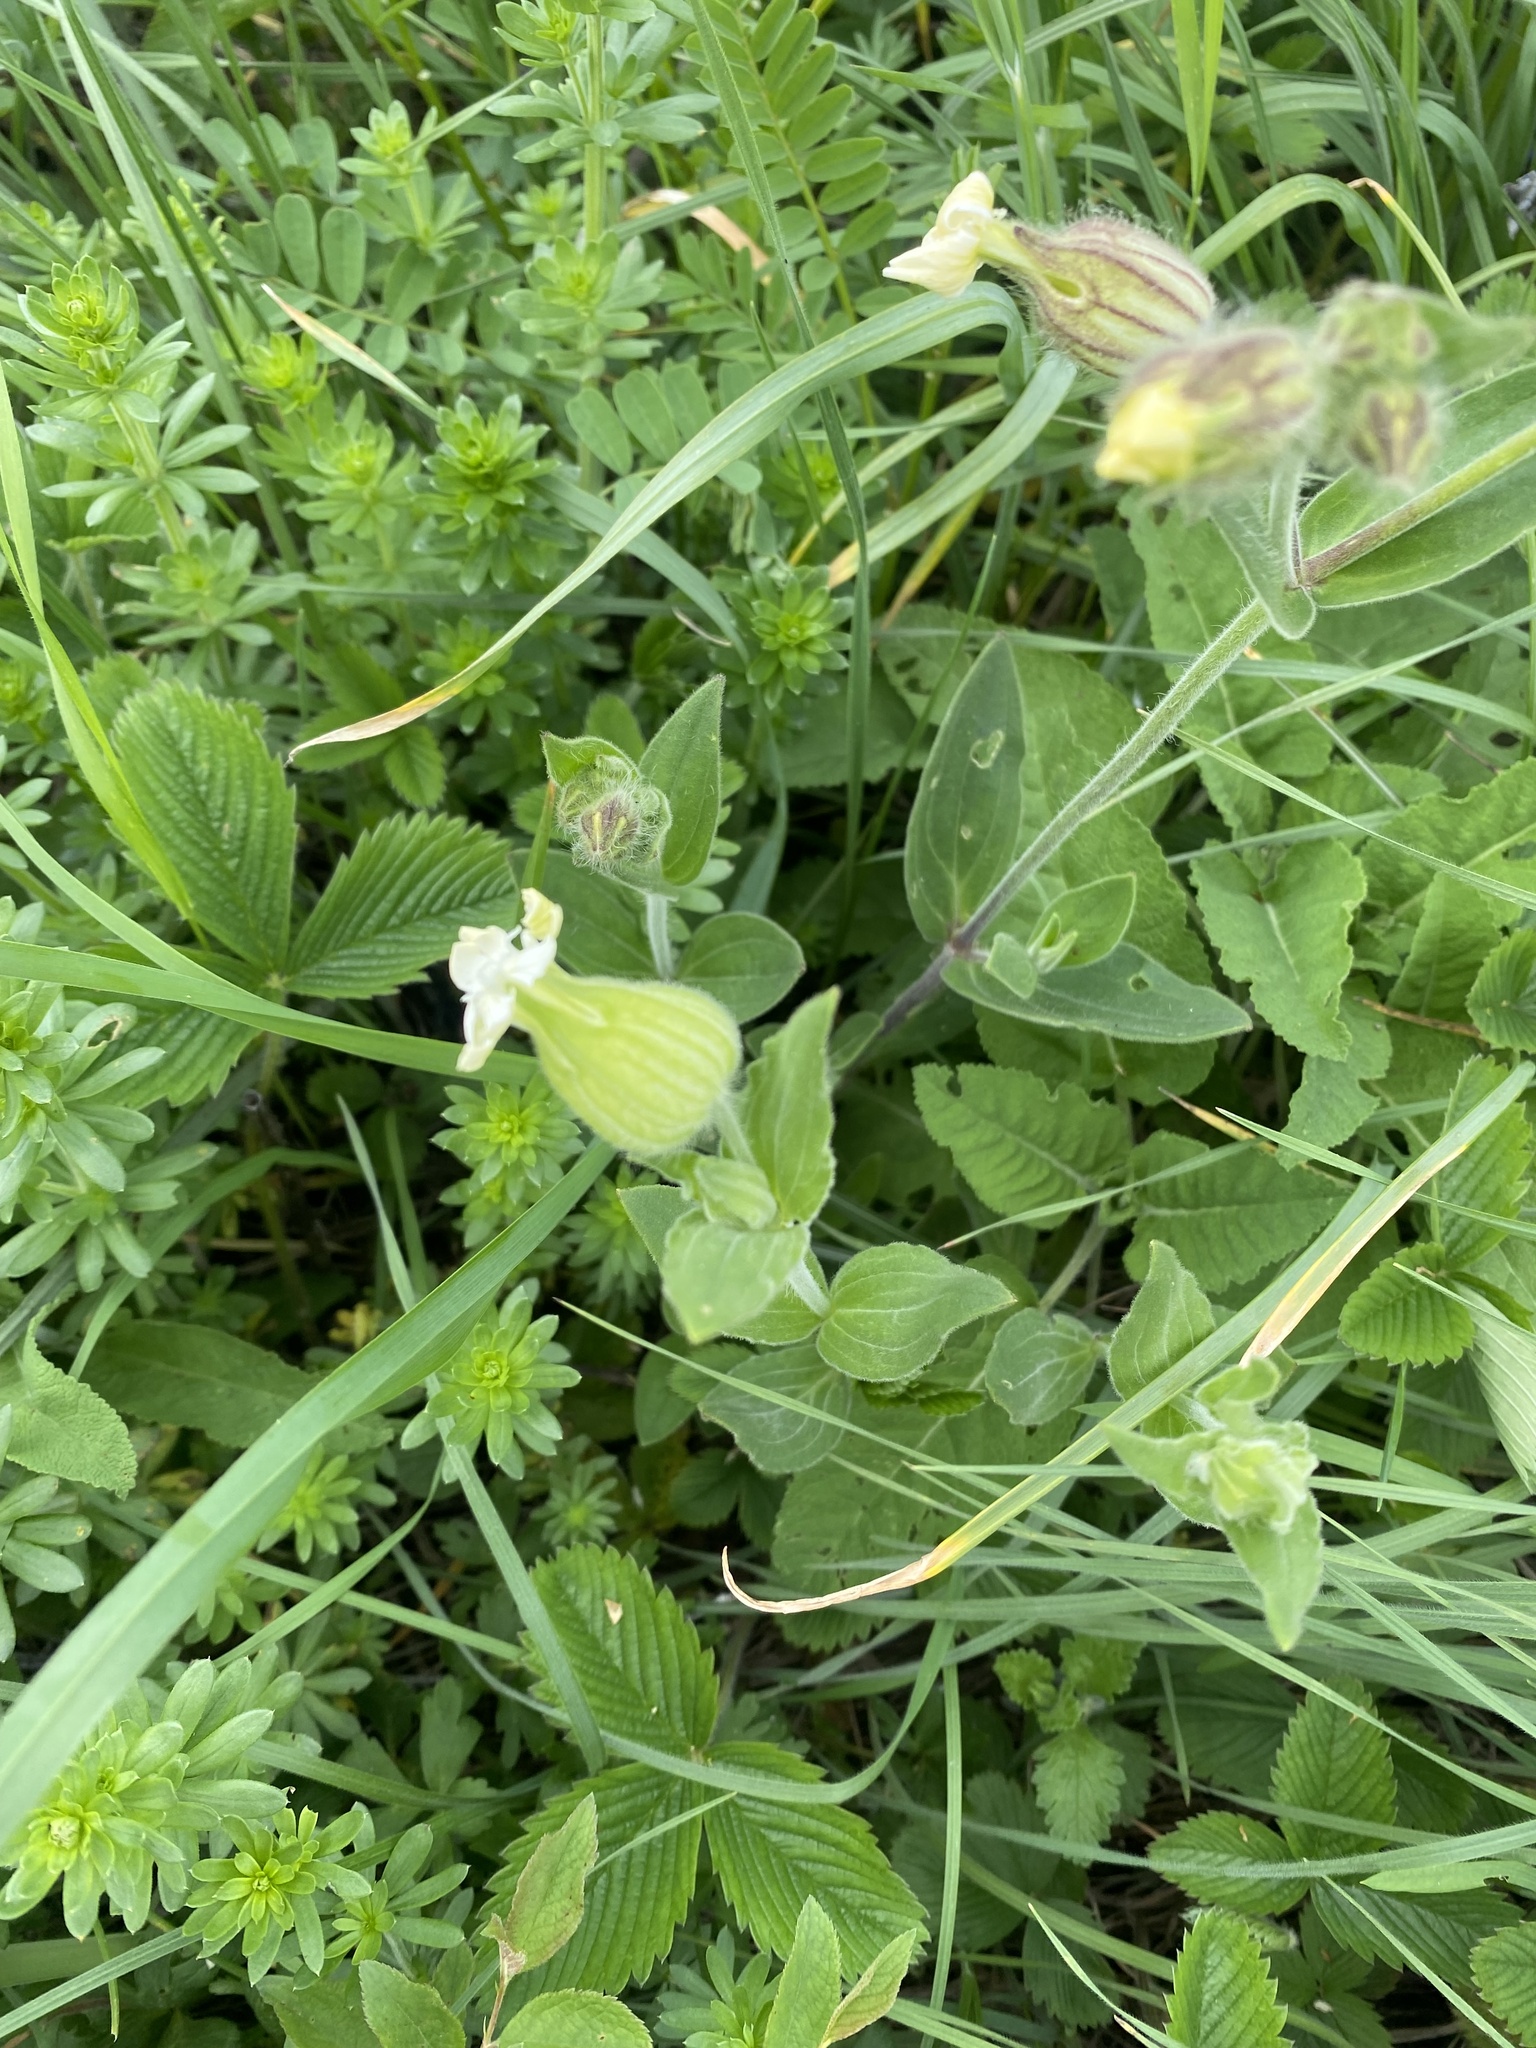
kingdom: Plantae
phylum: Tracheophyta
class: Magnoliopsida
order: Caryophyllales
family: Caryophyllaceae
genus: Silene
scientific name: Silene latifolia
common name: White campion
